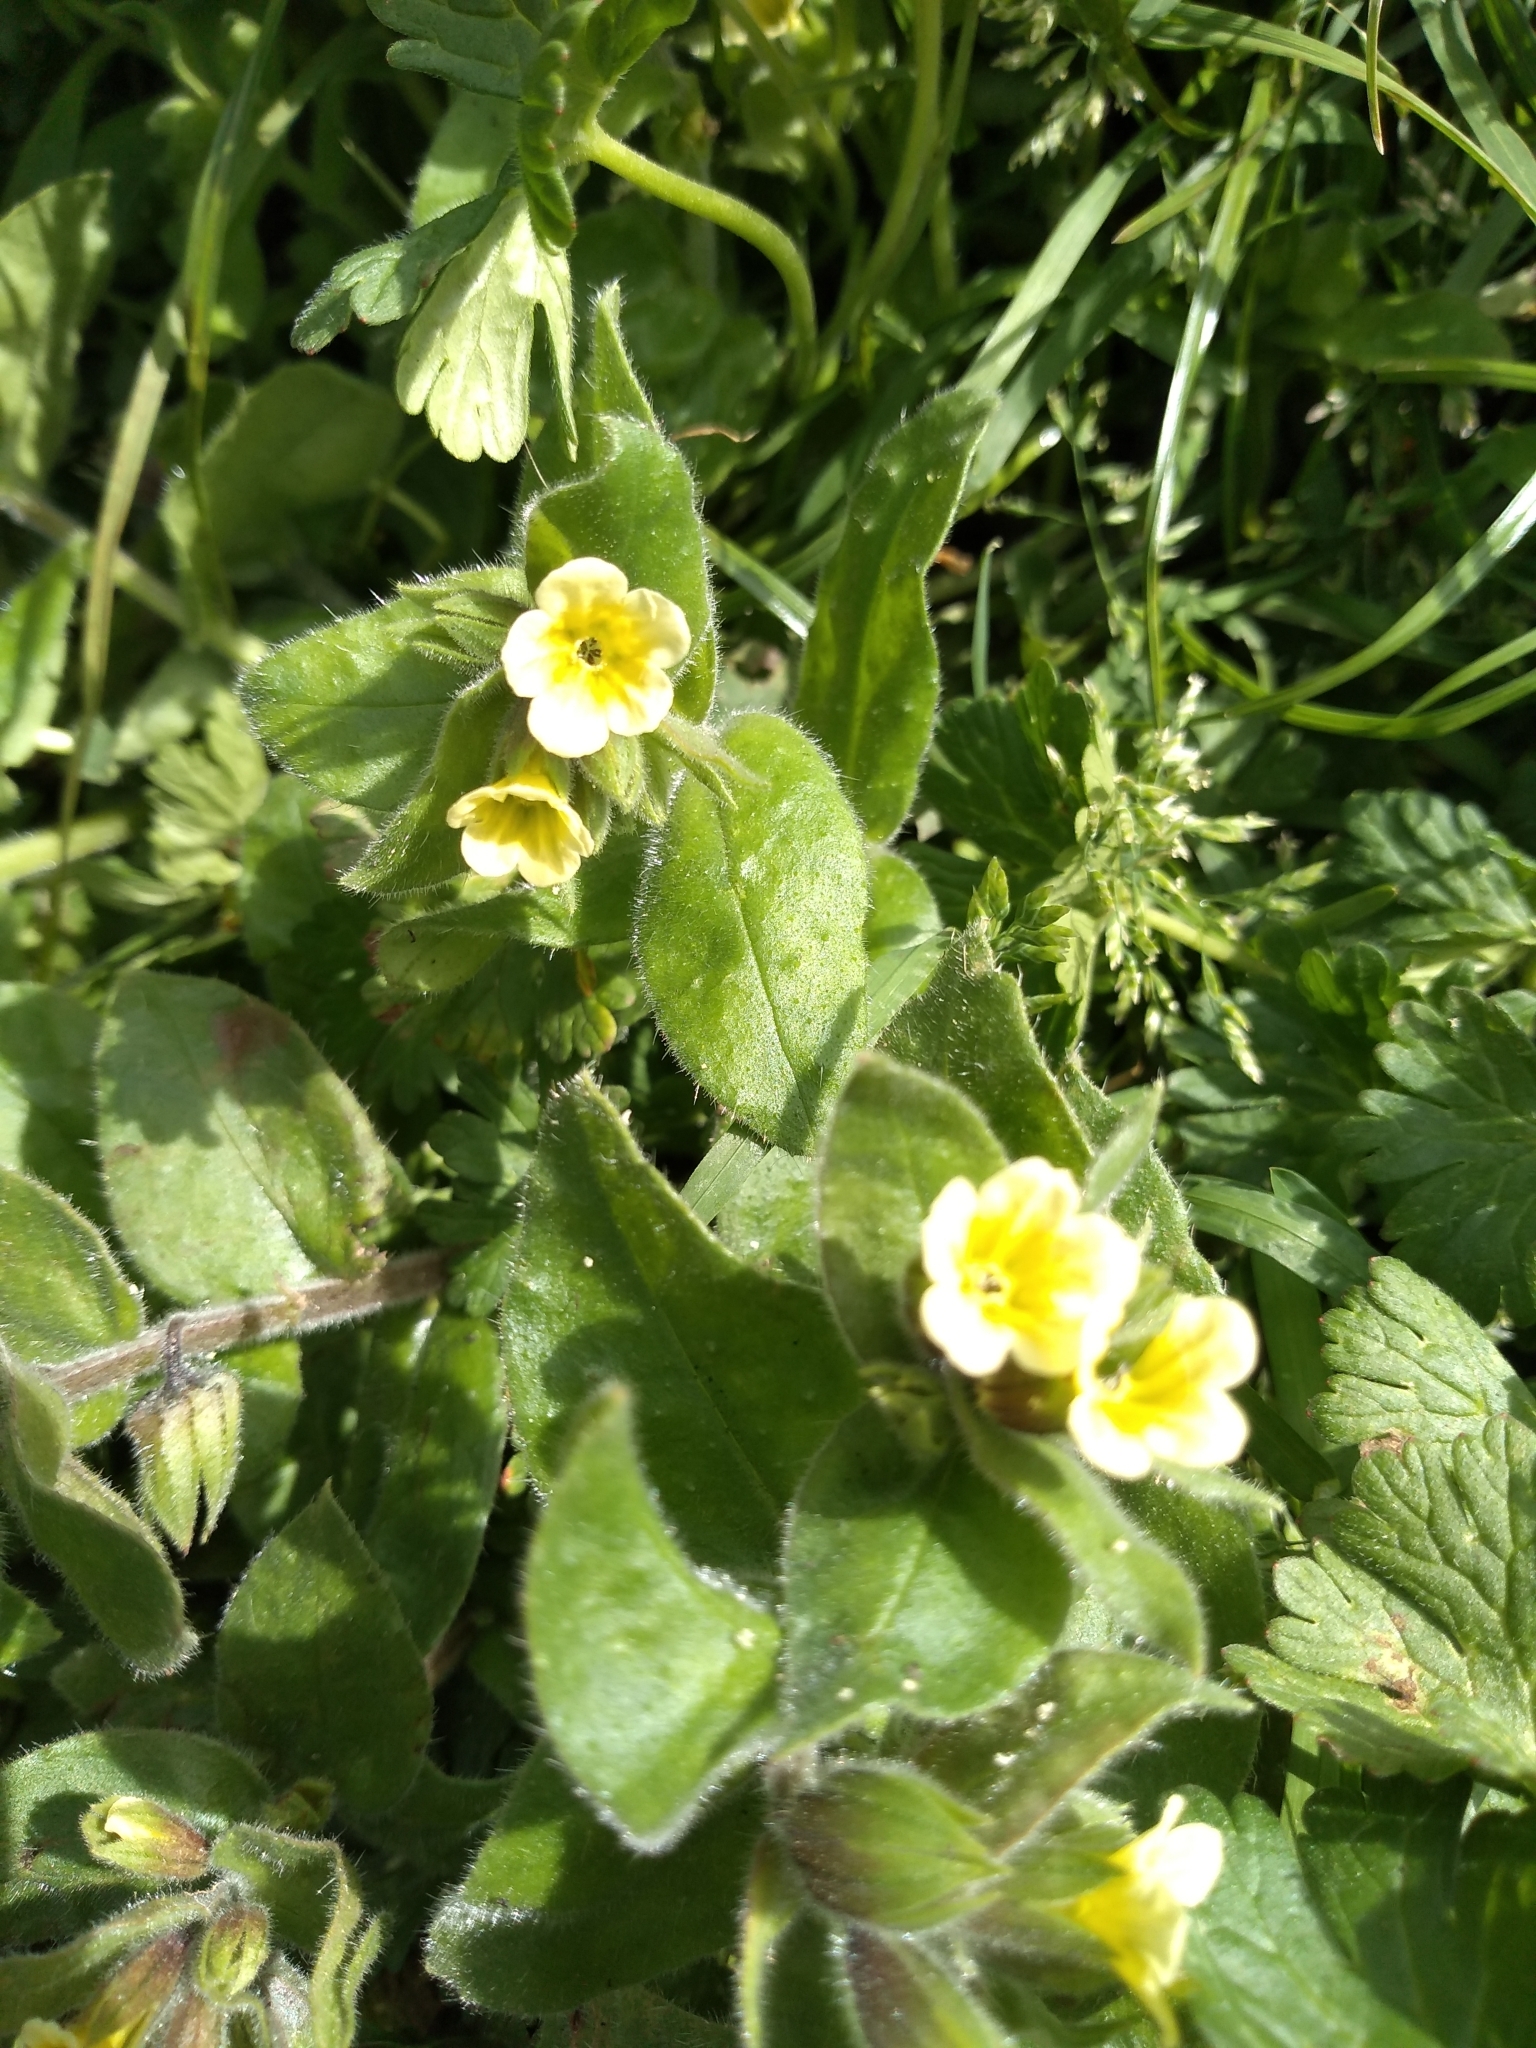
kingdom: Plantae
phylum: Tracheophyta
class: Magnoliopsida
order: Boraginales
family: Boraginaceae
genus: Nonea
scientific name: Nonea lutea
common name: Yellow nonea
